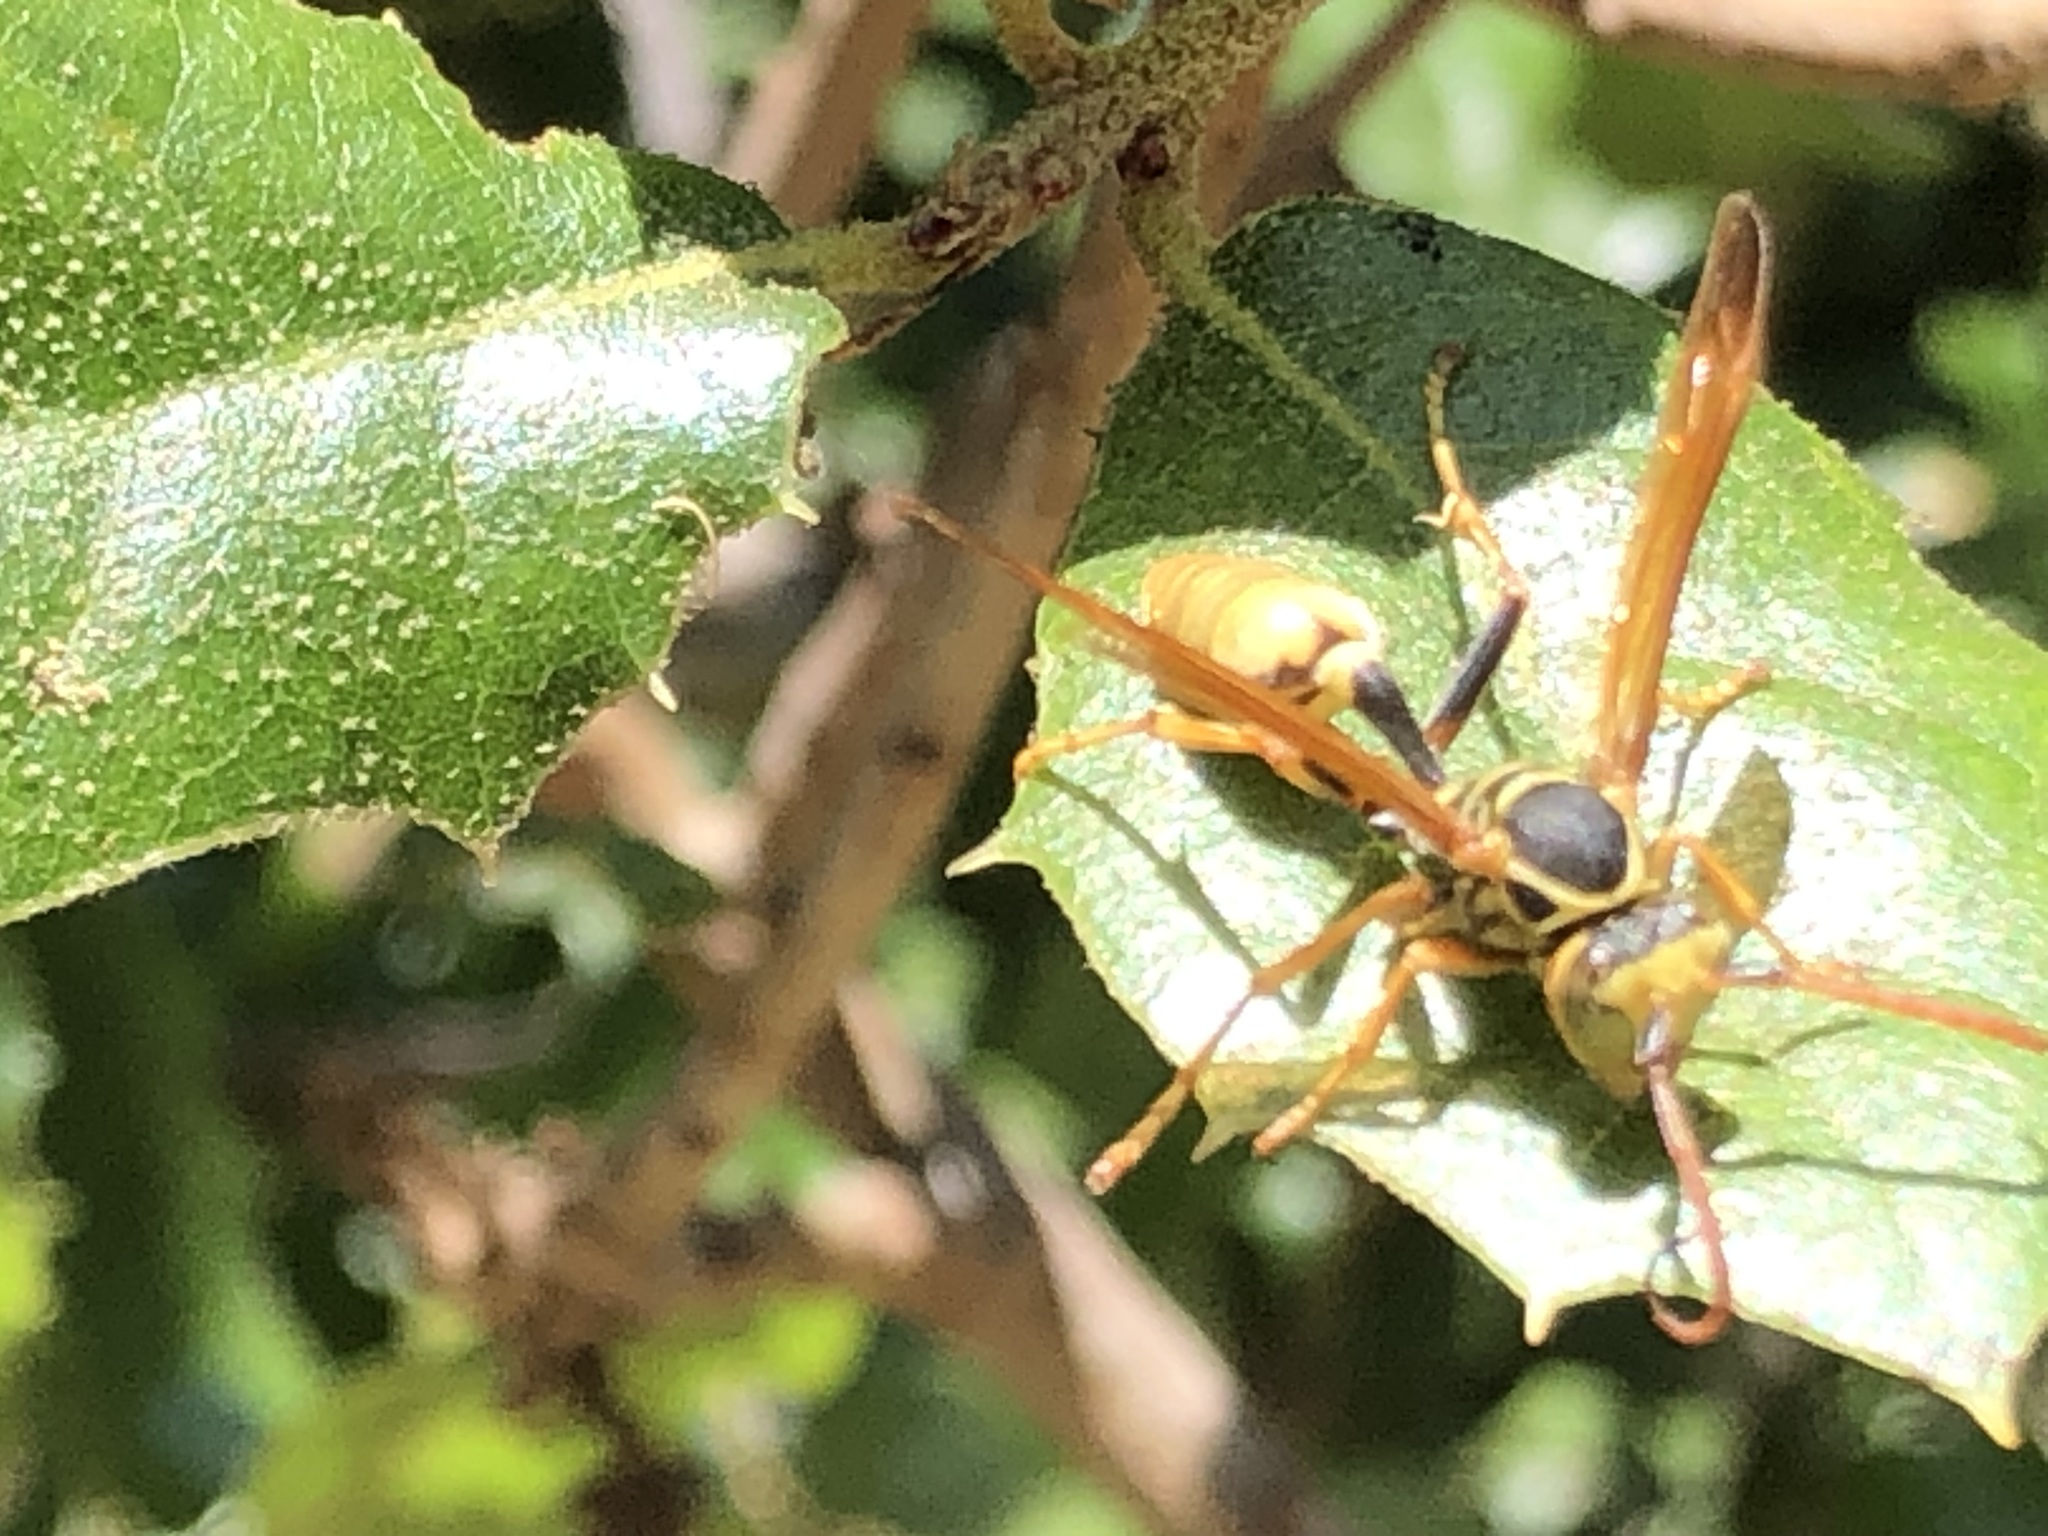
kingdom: Animalia
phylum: Arthropoda
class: Insecta
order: Hymenoptera
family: Vespidae
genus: Mischocyttarus
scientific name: Mischocyttarus flavitarsis
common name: Wasp
